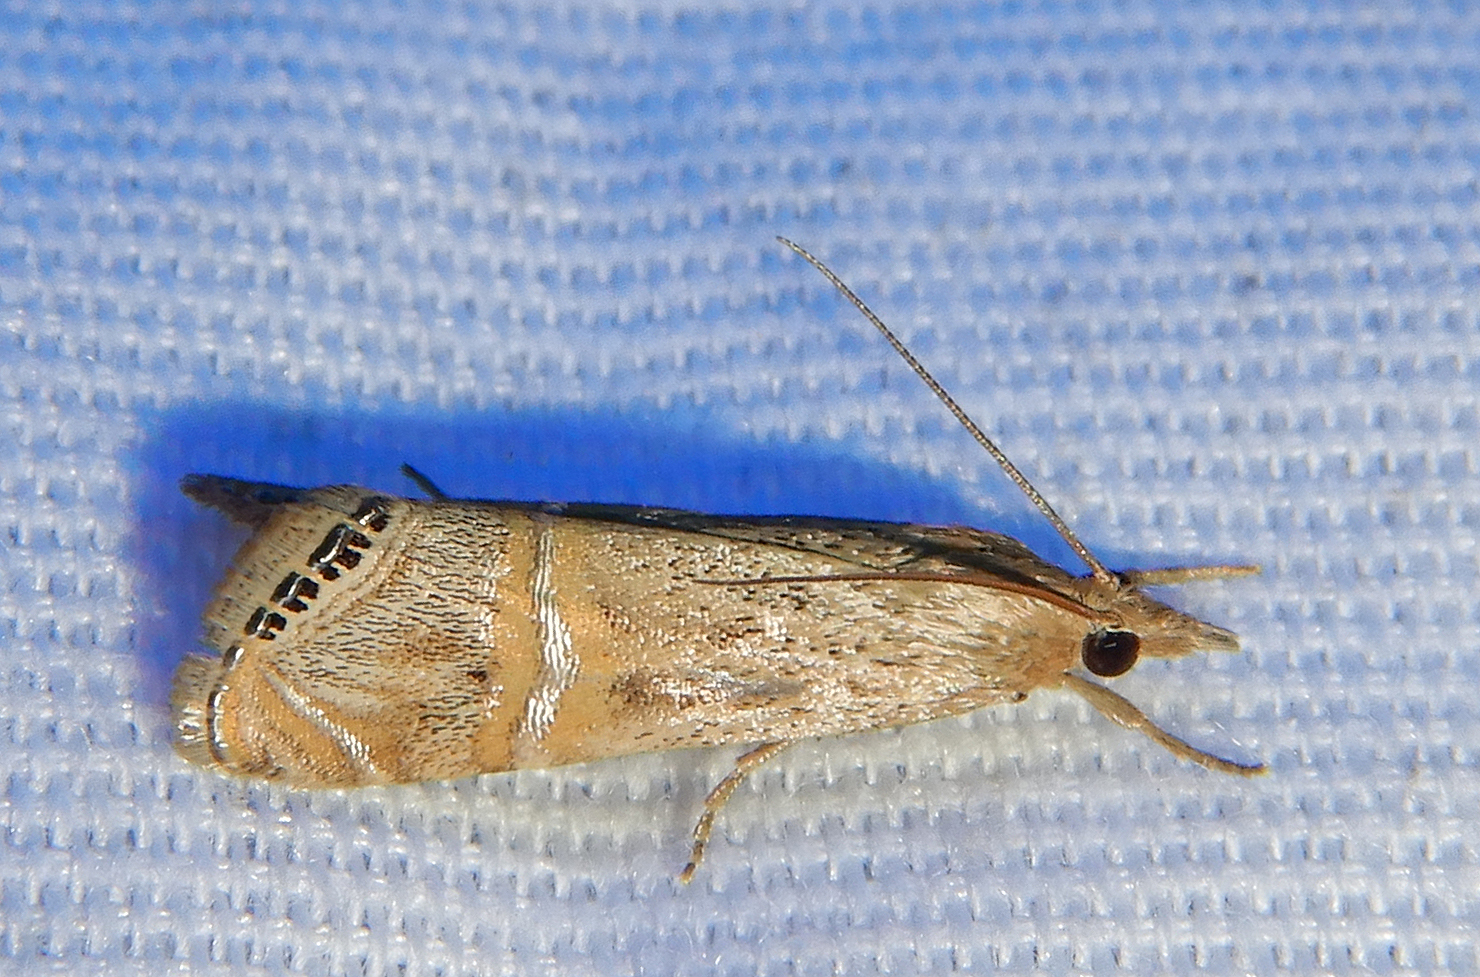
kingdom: Animalia
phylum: Arthropoda
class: Insecta
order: Lepidoptera
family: Crambidae
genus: Euchromius
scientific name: Euchromius ocellea
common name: Necklace veneer moth
